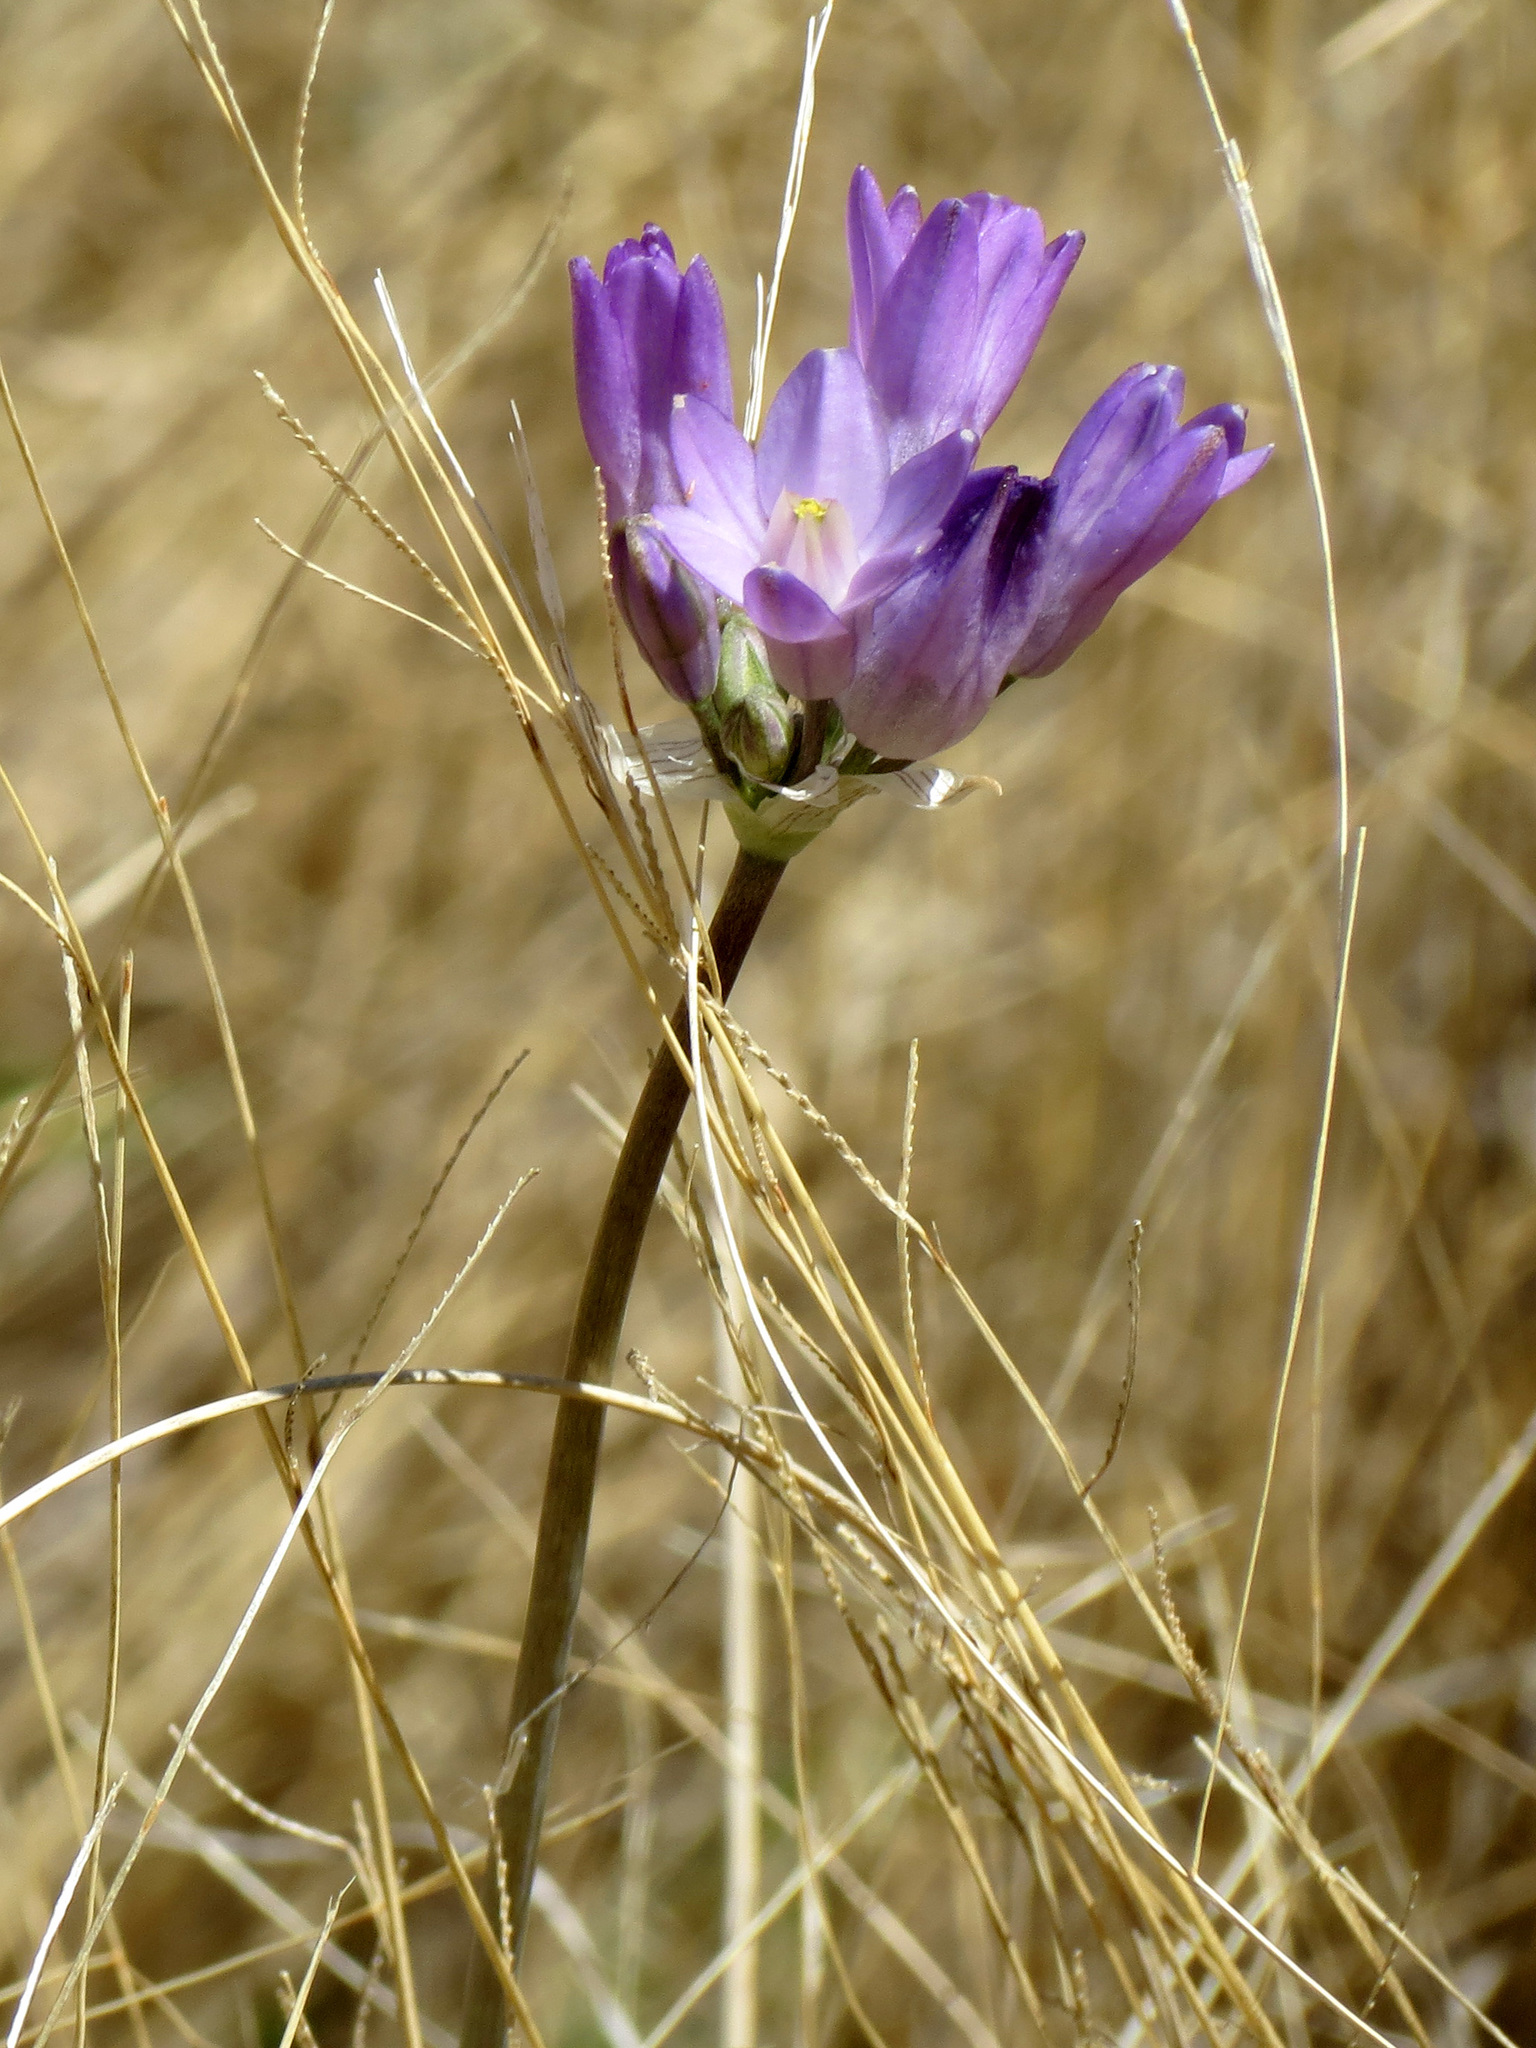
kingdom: Plantae
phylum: Tracheophyta
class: Liliopsida
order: Asparagales
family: Asparagaceae
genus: Dipterostemon
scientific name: Dipterostemon capitatus
